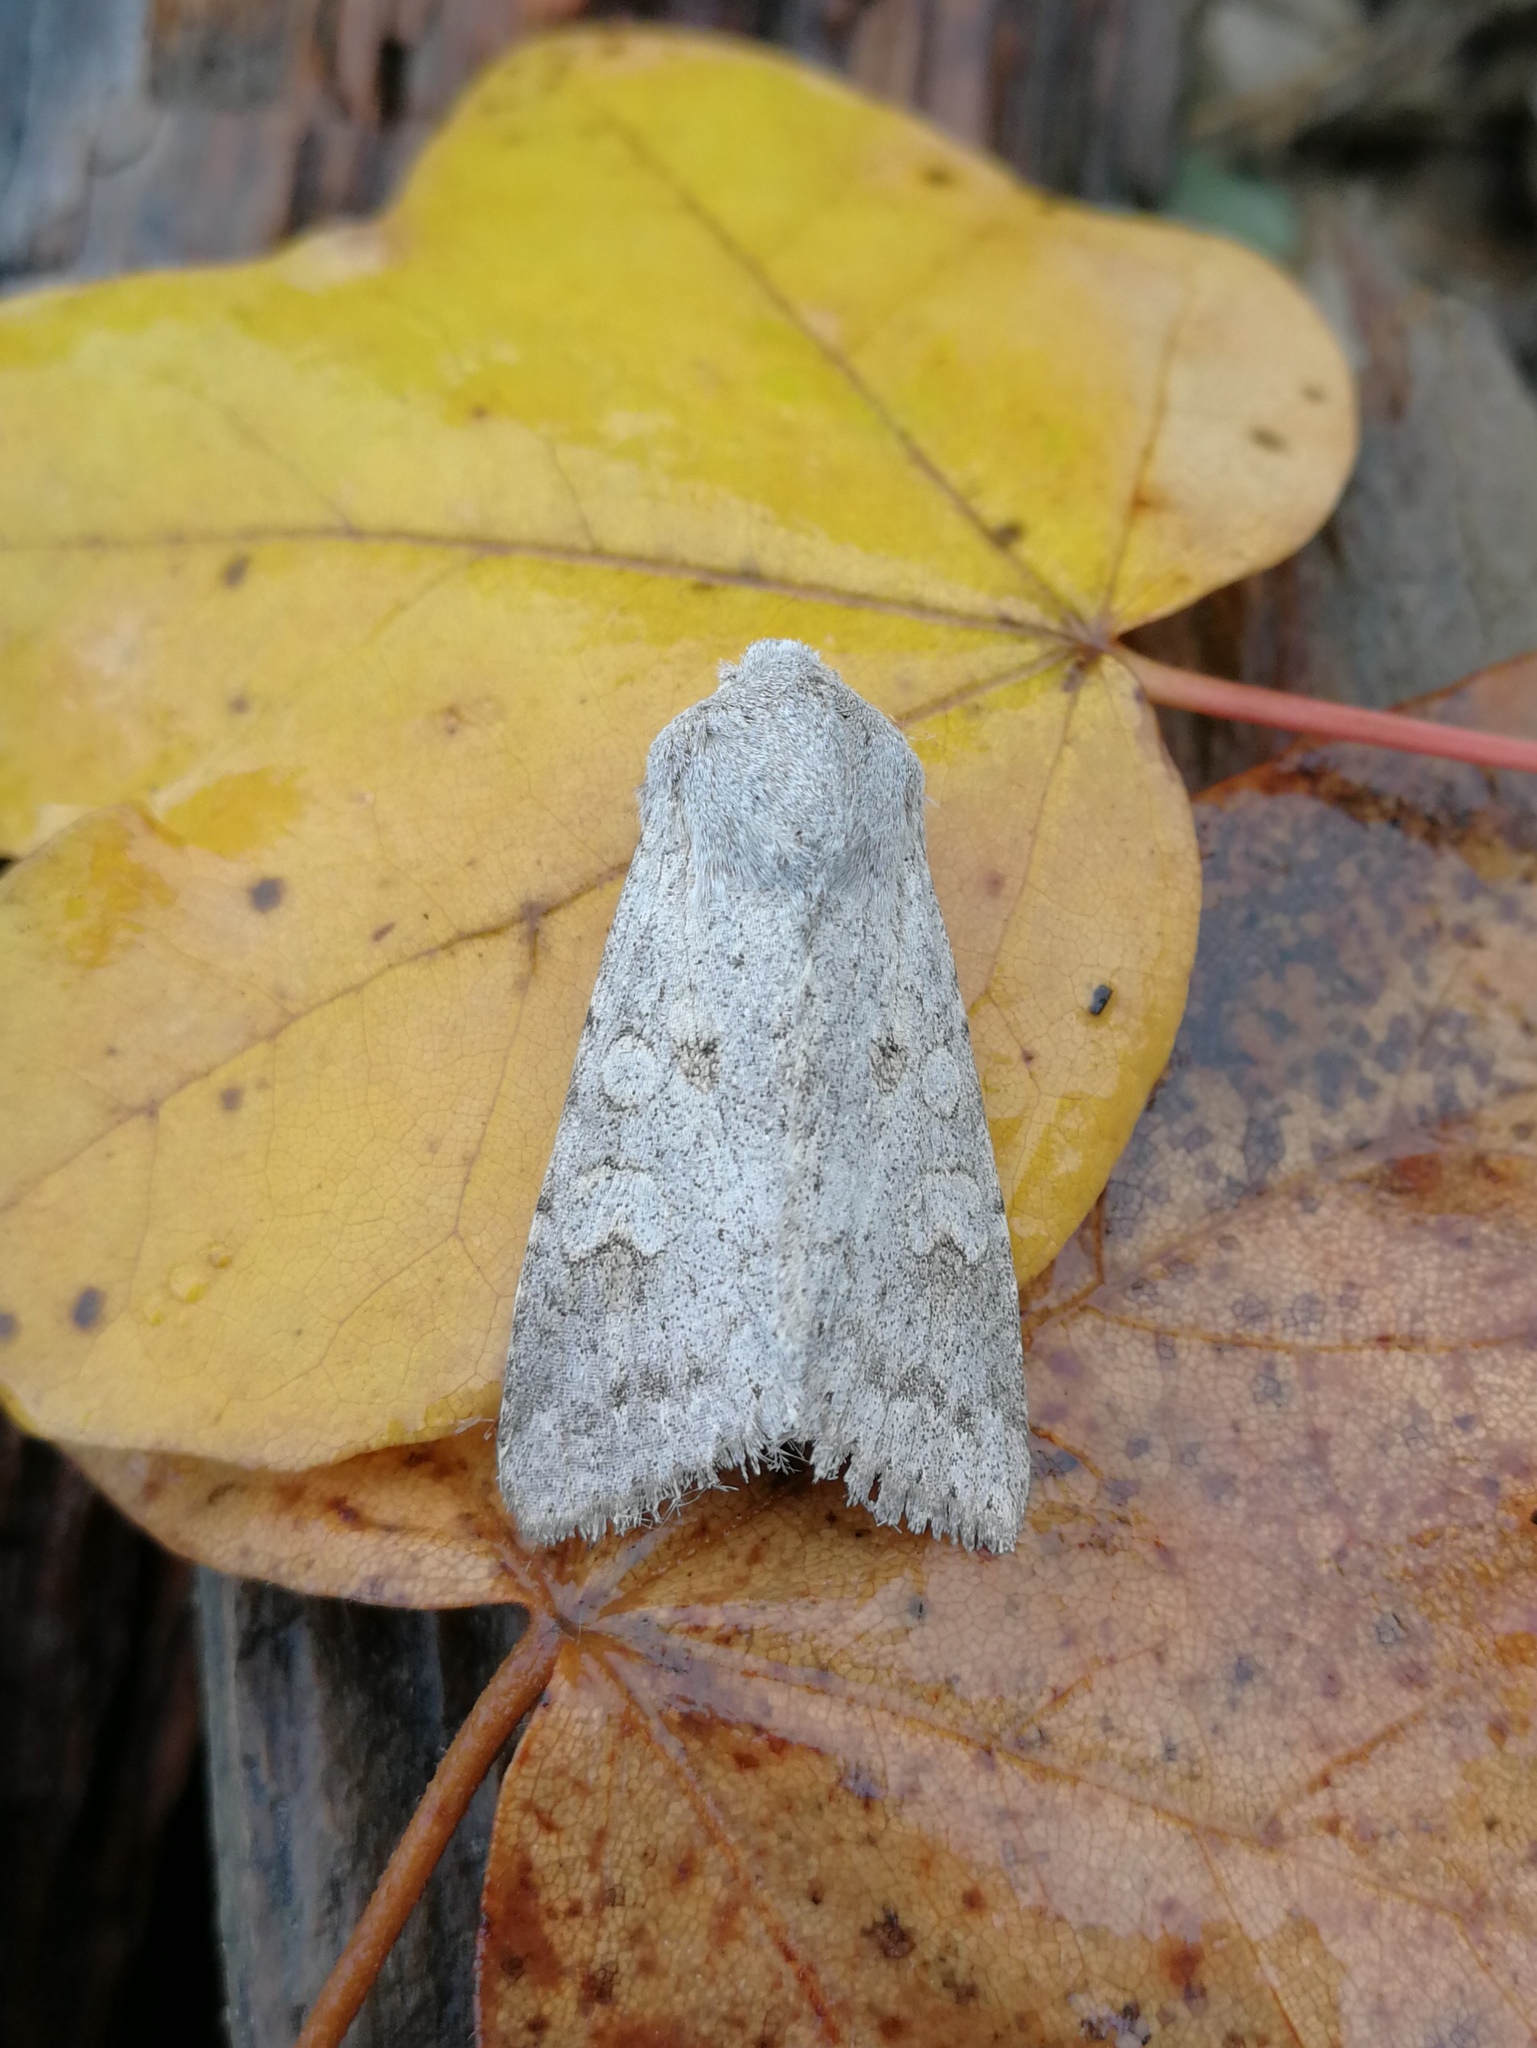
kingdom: Animalia
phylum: Arthropoda
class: Insecta
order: Lepidoptera
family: Noctuidae
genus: Ammoconia
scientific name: Ammoconia senex
